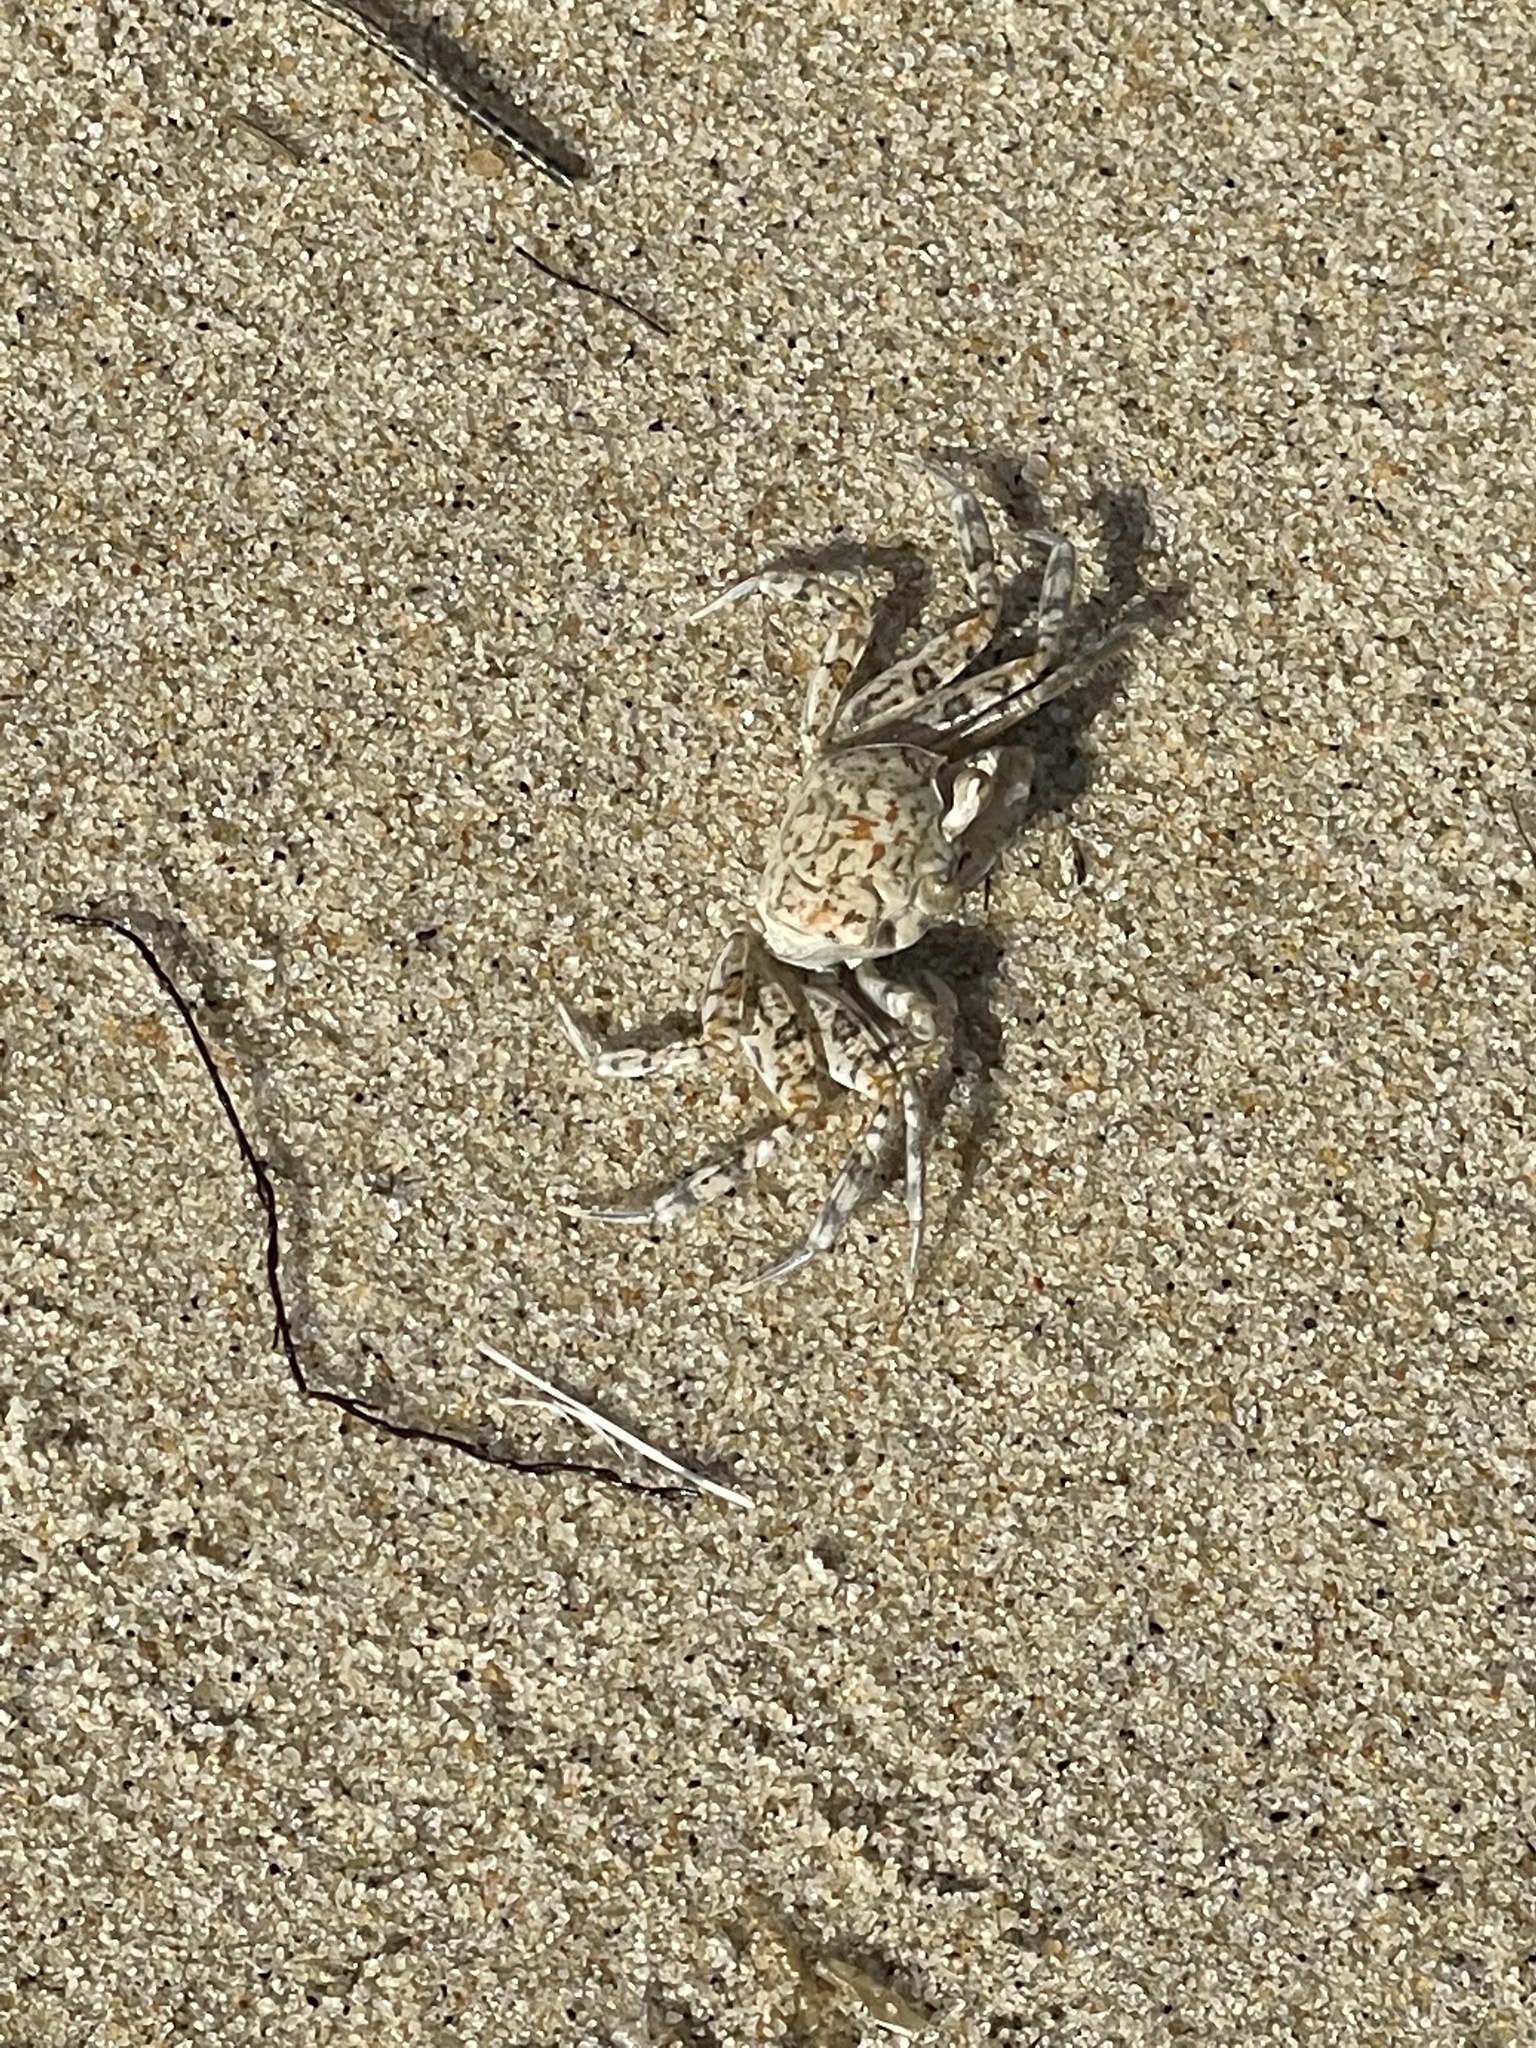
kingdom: Animalia
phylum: Arthropoda
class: Malacostraca
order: Decapoda
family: Ocypodidae
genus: Ocypode
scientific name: Ocypode quadrata
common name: Ghost crab
